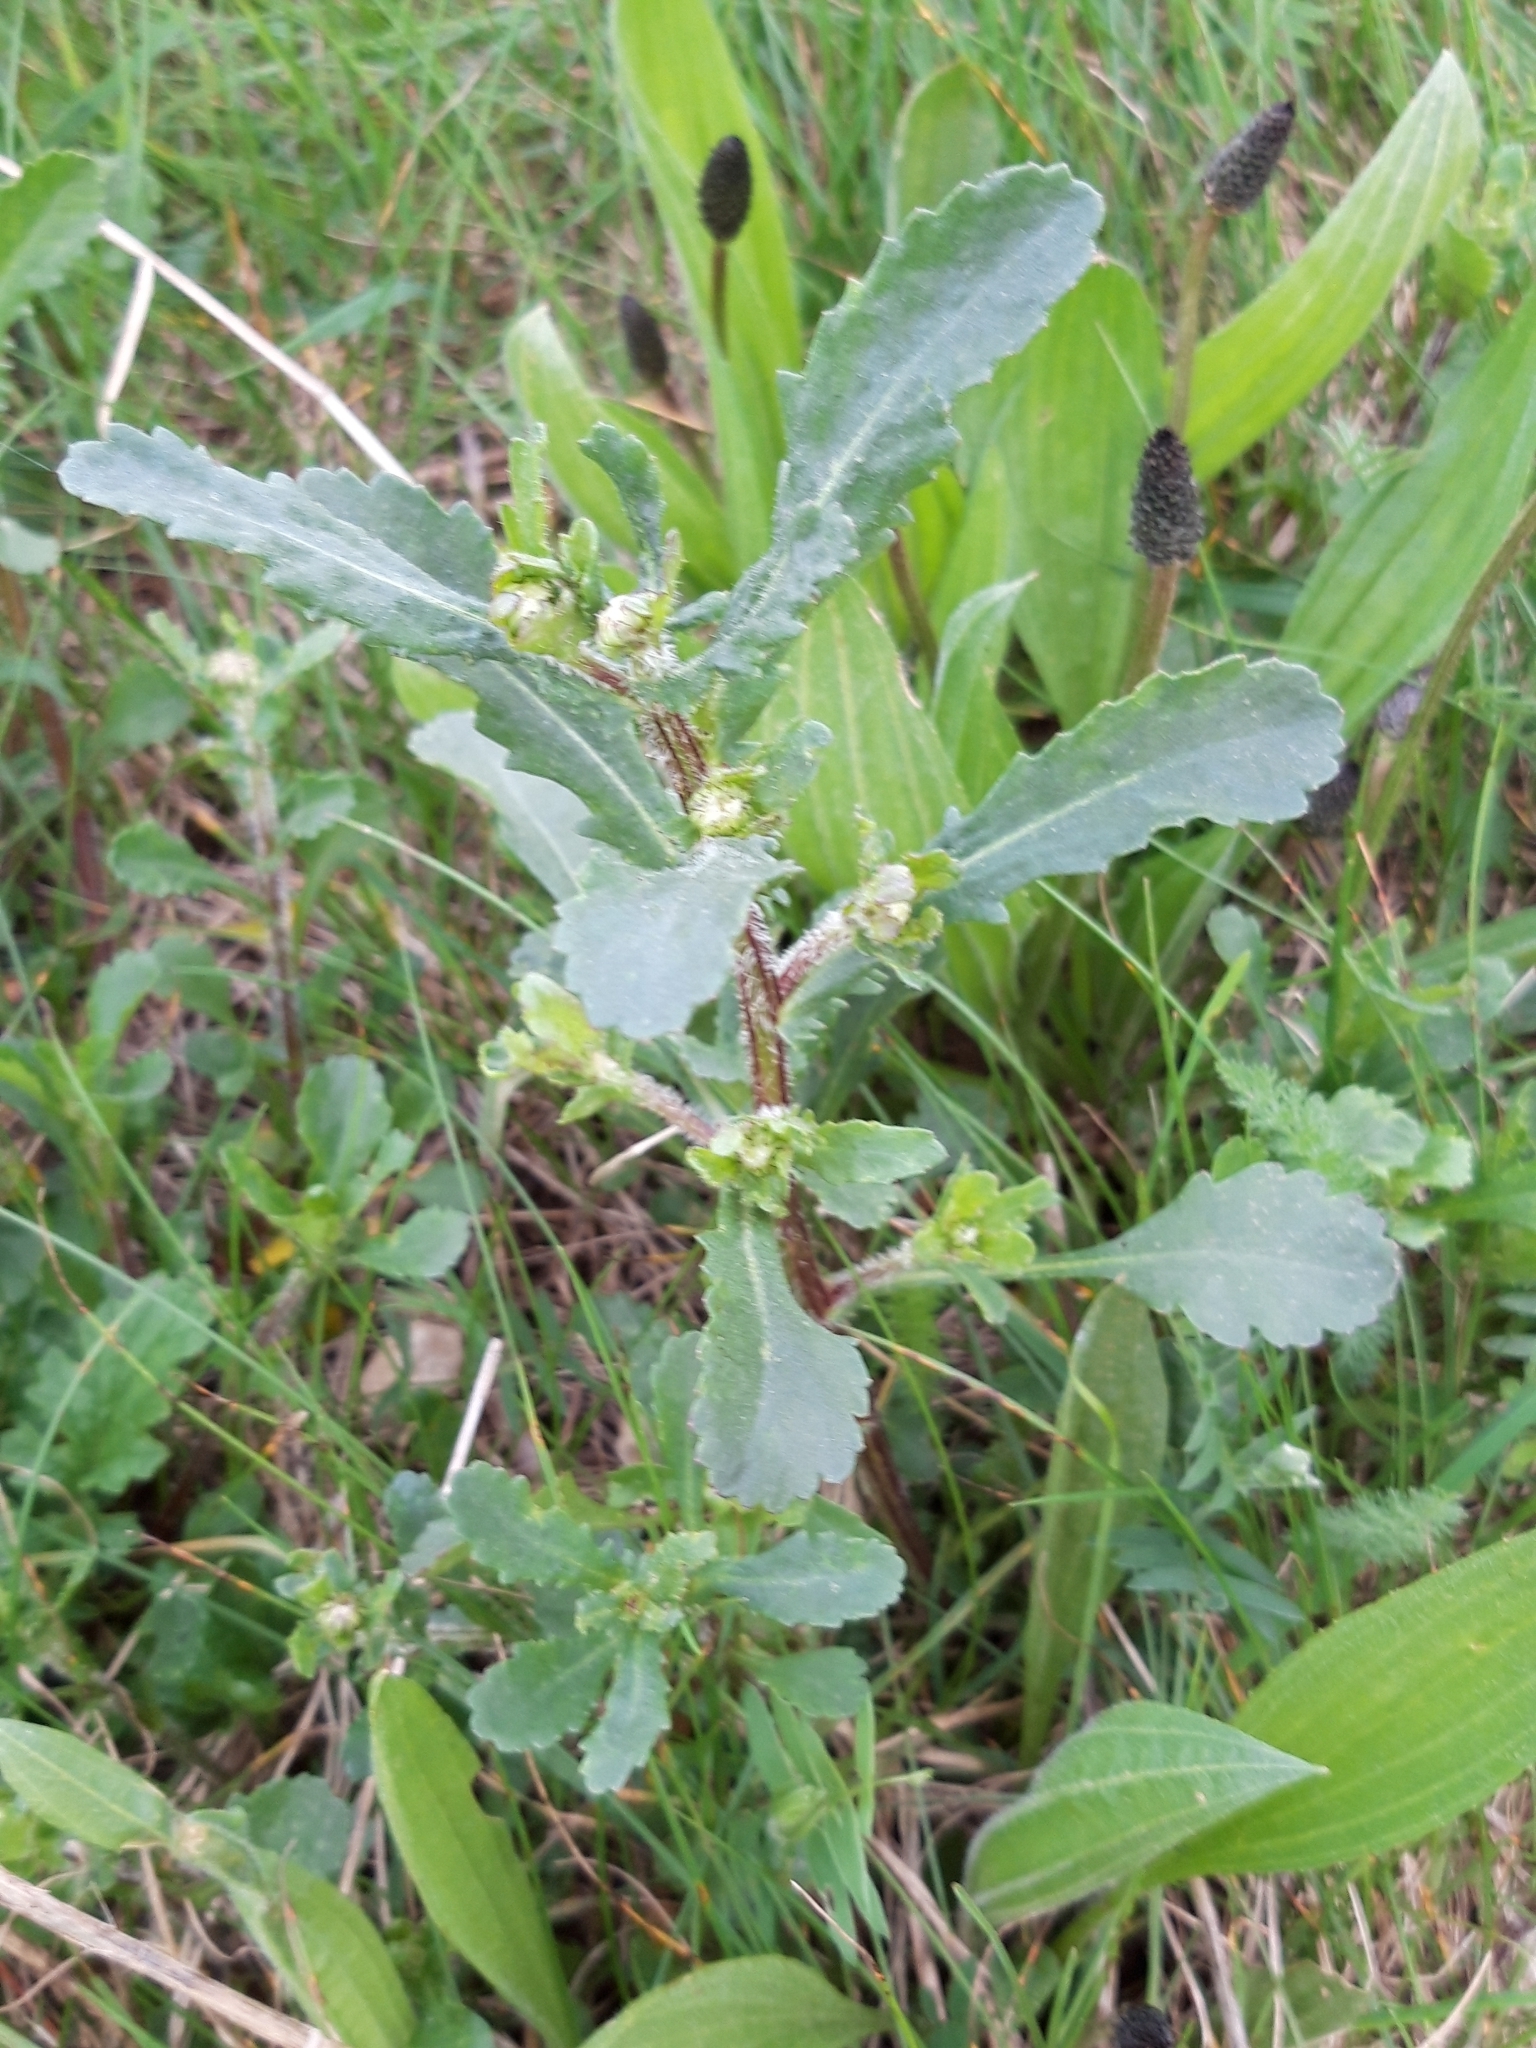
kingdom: Plantae
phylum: Tracheophyta
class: Magnoliopsida
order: Asterales
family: Asteraceae
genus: Leucanthemum
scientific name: Leucanthemum vulgare
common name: Oxeye daisy
